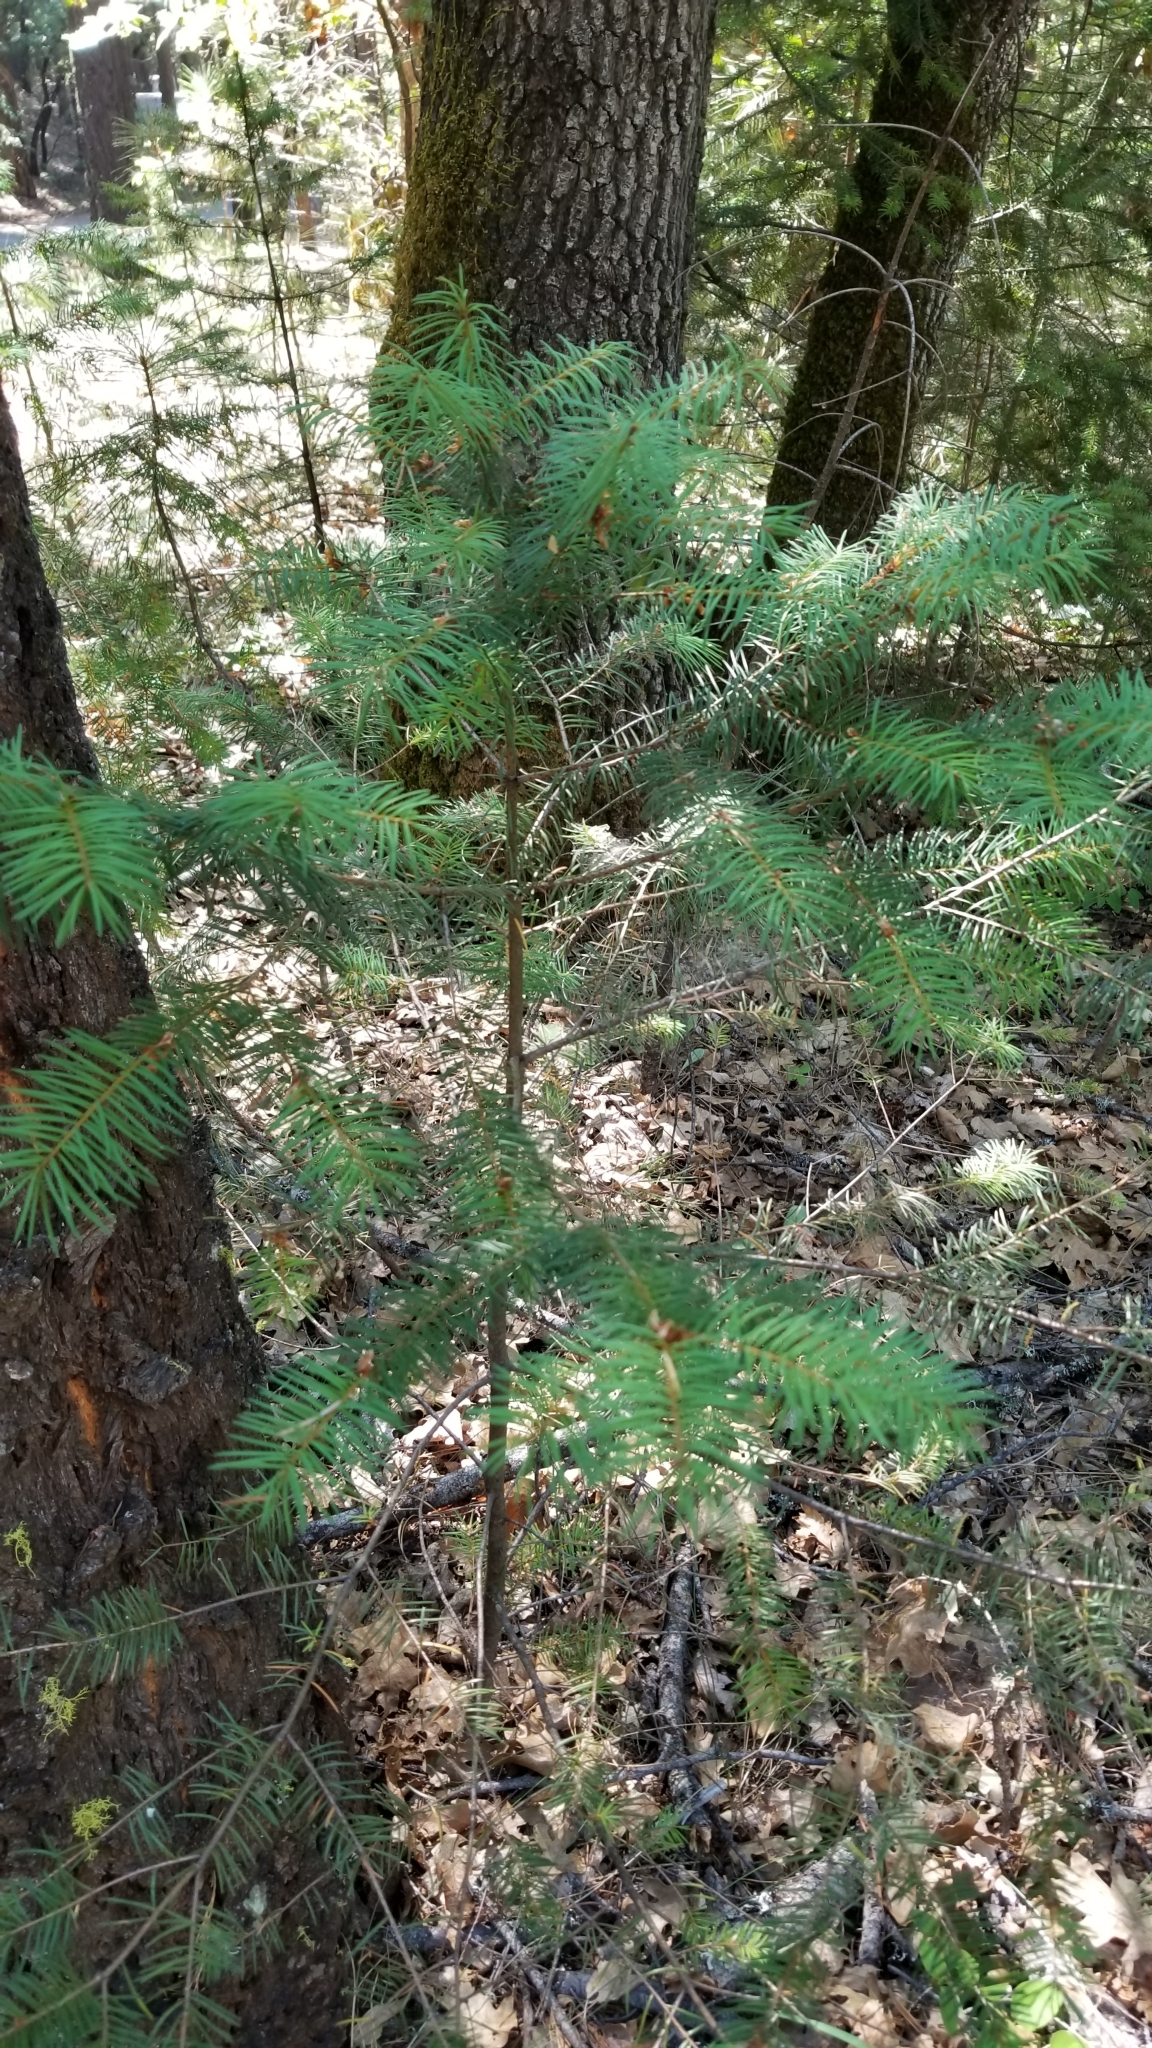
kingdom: Plantae
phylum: Tracheophyta
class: Pinopsida
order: Pinales
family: Pinaceae
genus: Pseudotsuga
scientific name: Pseudotsuga menziesii
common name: Douglas fir
